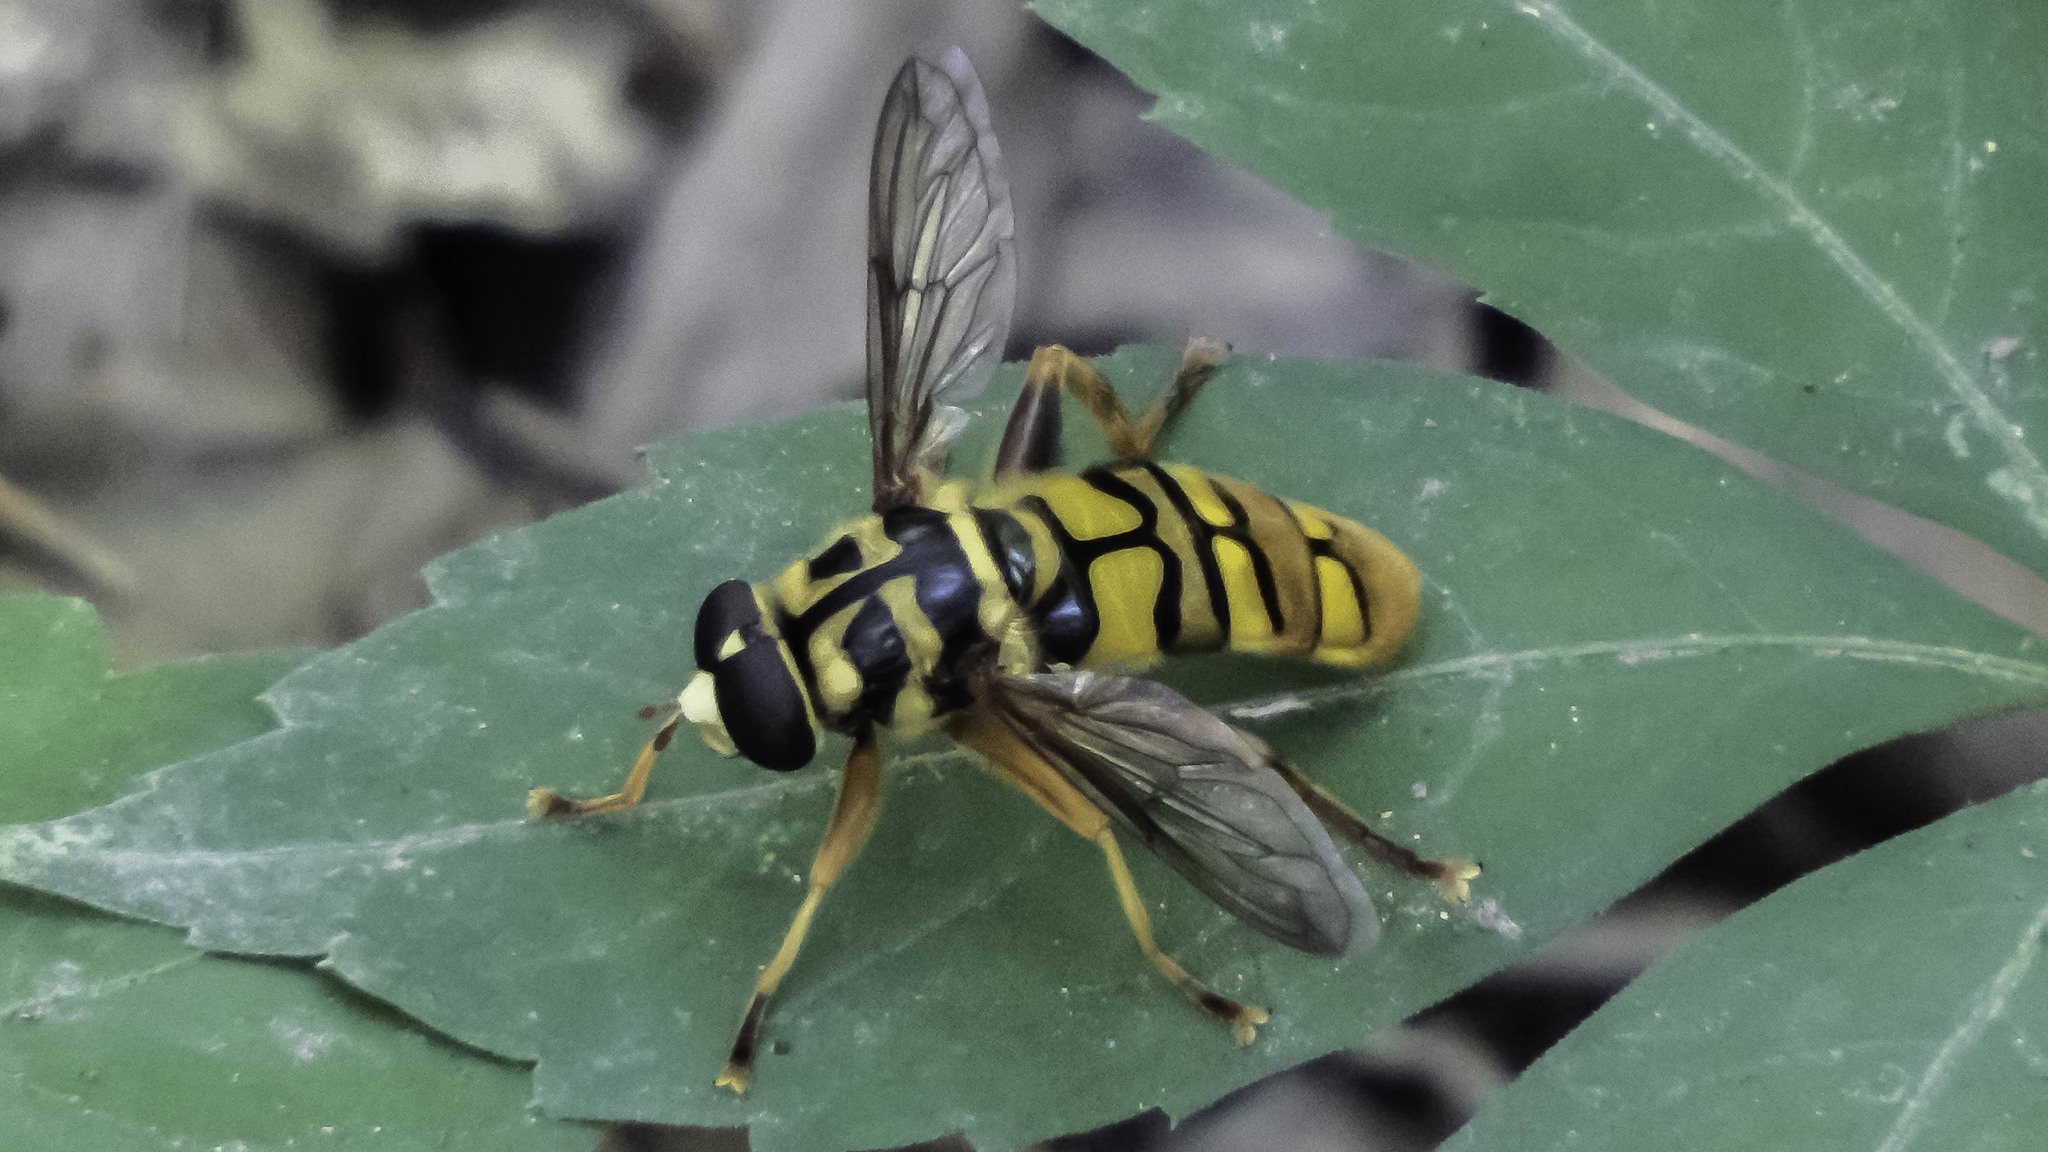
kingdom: Animalia
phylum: Arthropoda
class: Insecta
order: Diptera
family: Syrphidae
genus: Milesia
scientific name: Milesia virginiensis
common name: Virginia giant
